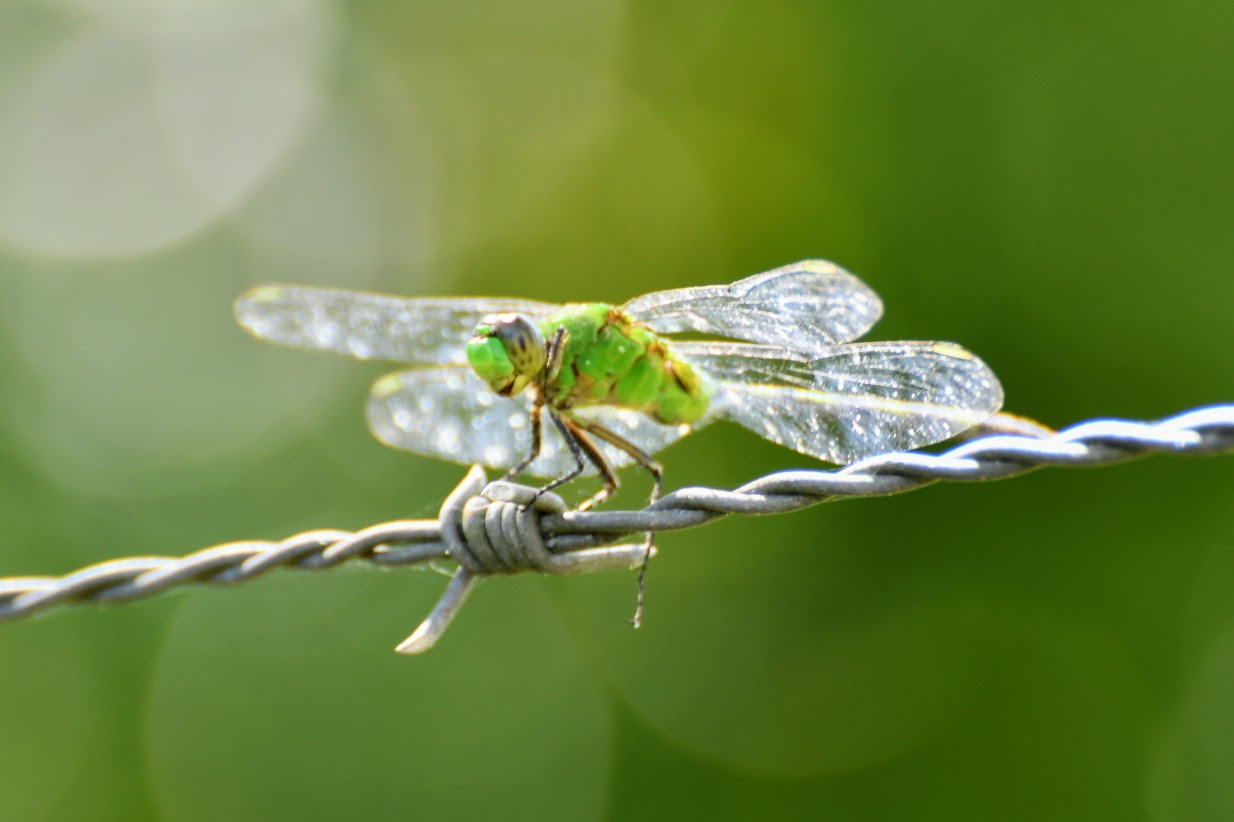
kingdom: Animalia
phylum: Arthropoda
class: Insecta
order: Odonata
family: Libellulidae
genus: Erythemis
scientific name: Erythemis vesiculosa
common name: Great pondhawk
